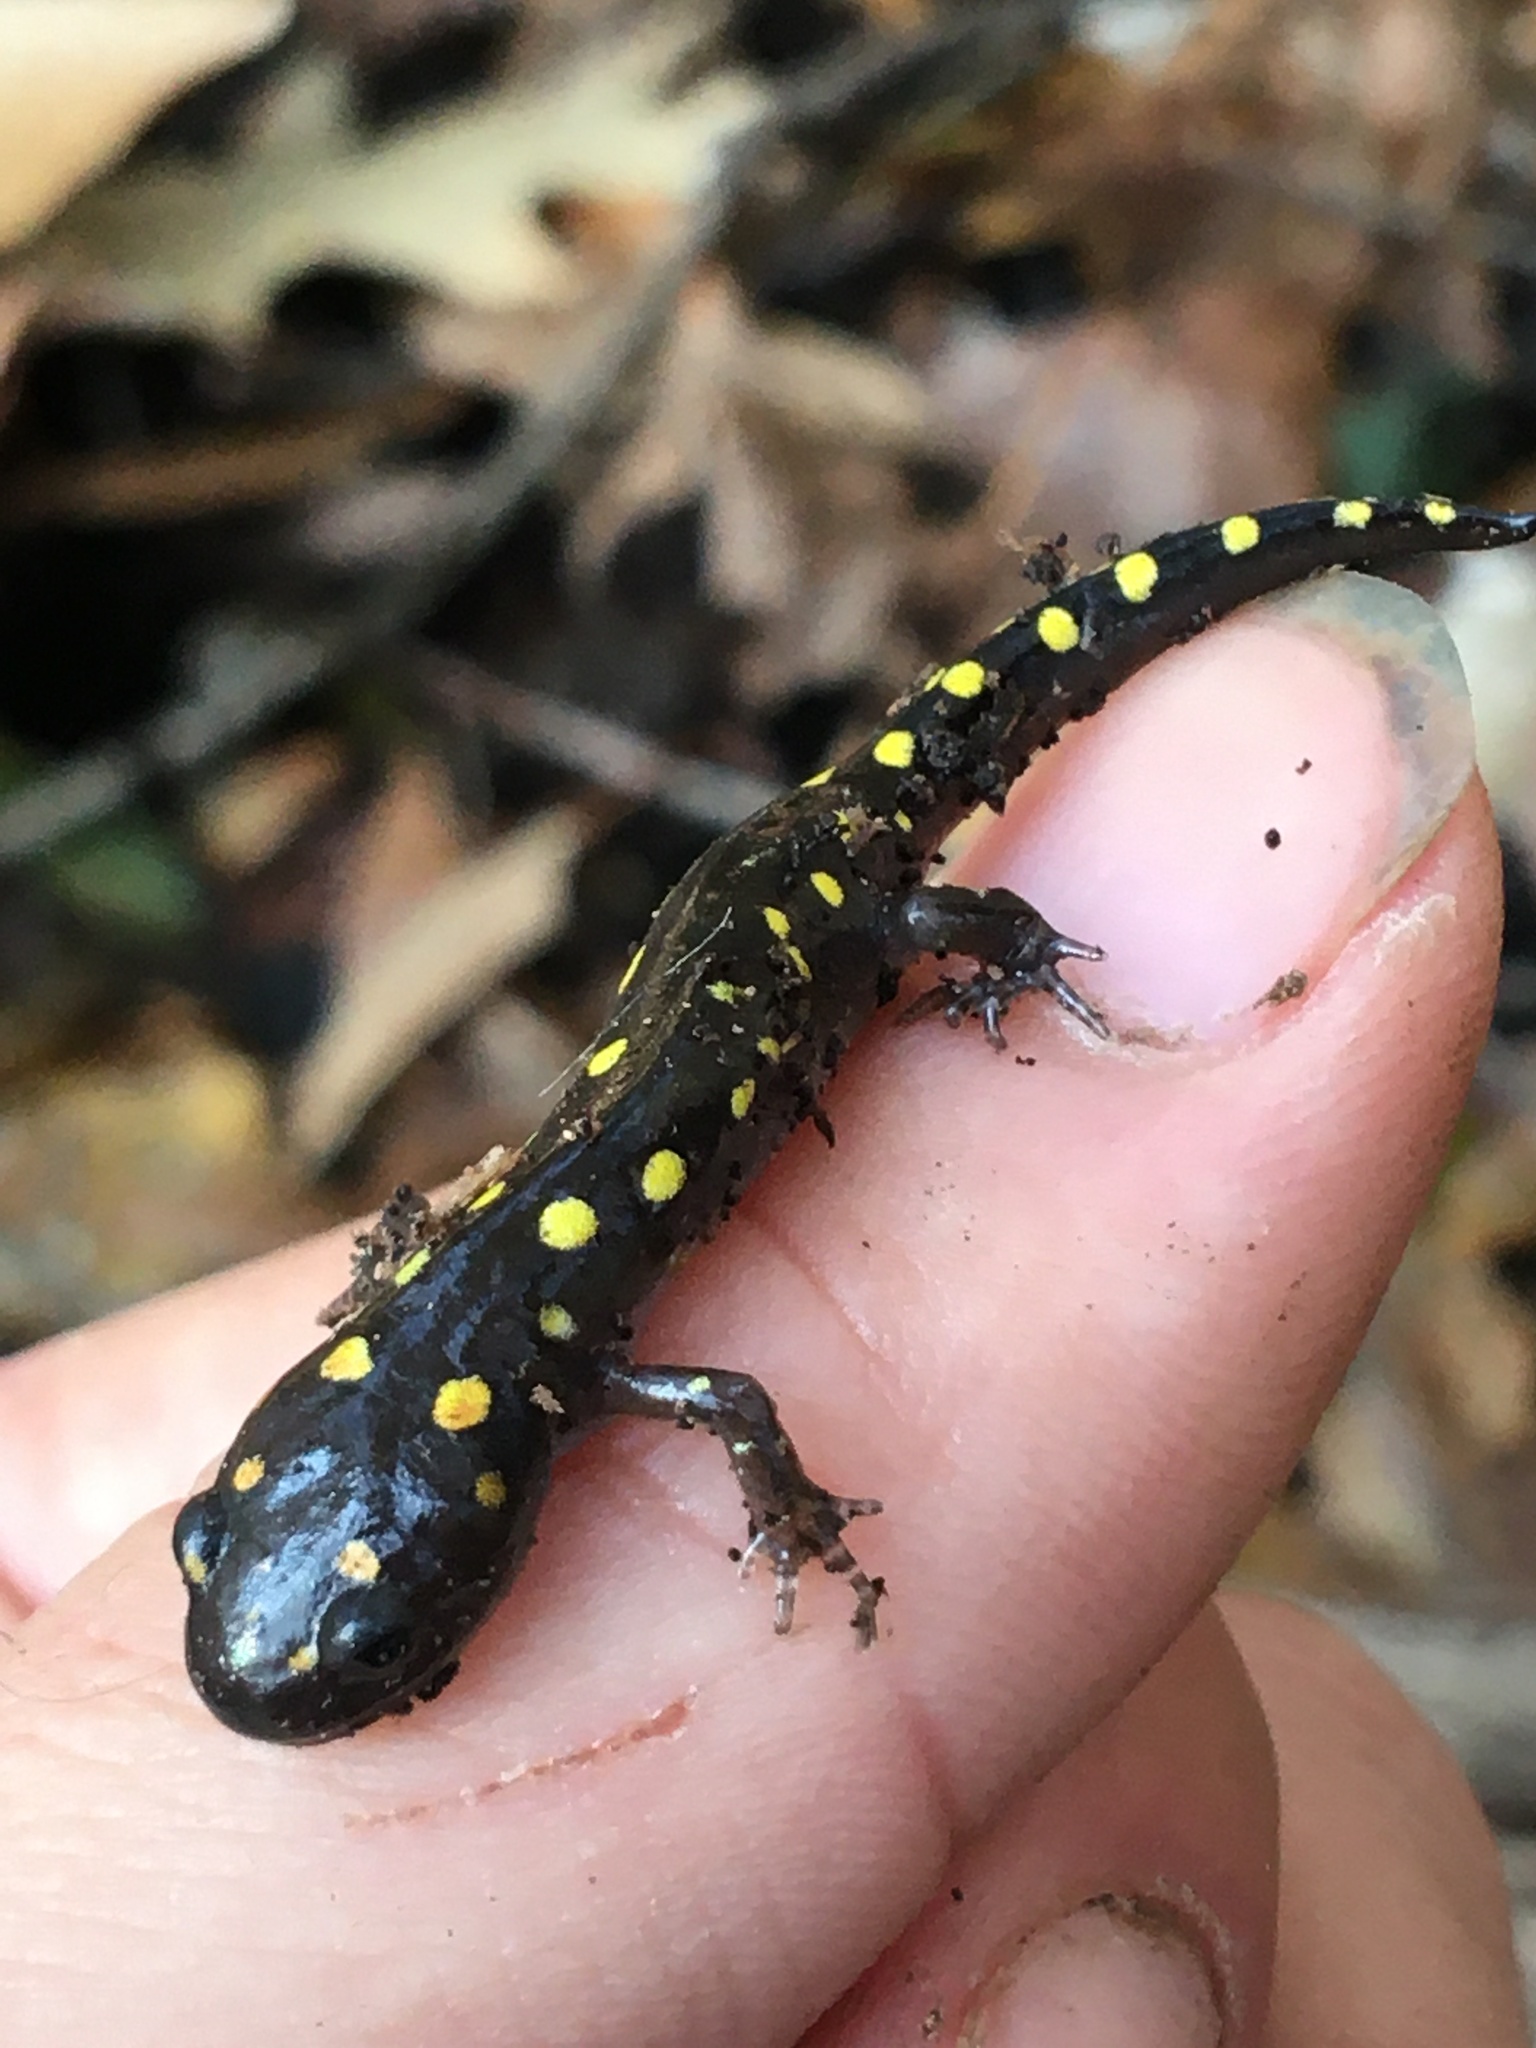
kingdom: Animalia
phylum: Chordata
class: Amphibia
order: Caudata
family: Ambystomatidae
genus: Ambystoma
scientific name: Ambystoma maculatum
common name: Spotted salamander
